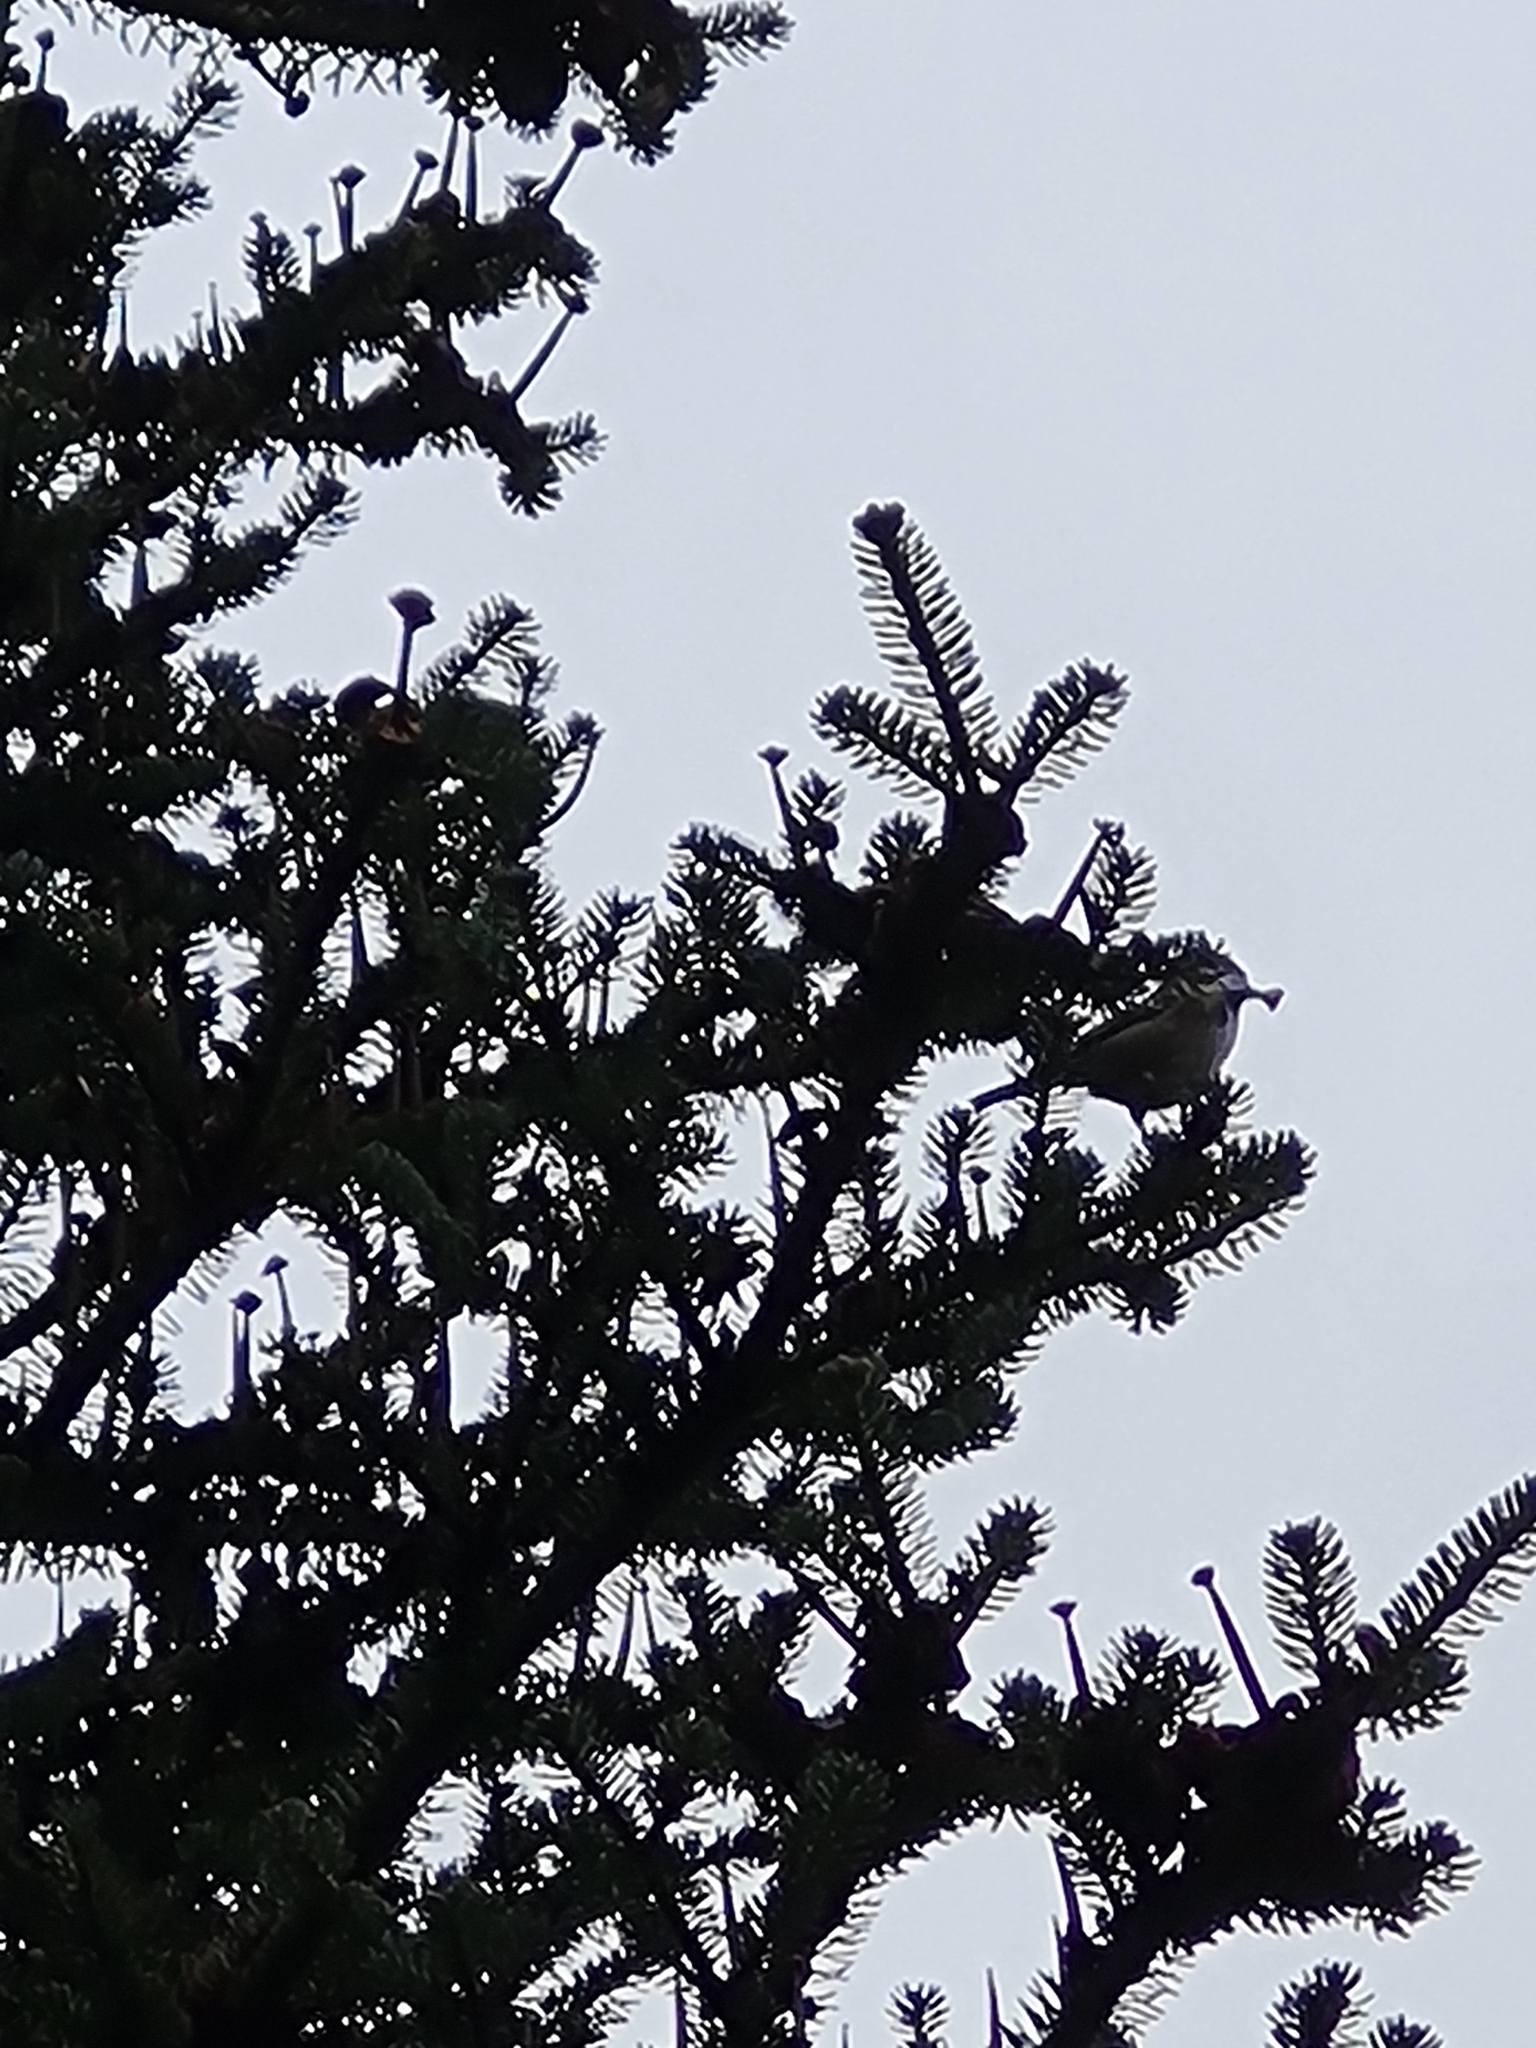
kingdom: Animalia
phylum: Chordata
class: Aves
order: Passeriformes
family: Paridae
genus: Periparus
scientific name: Periparus ater
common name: Coal tit
